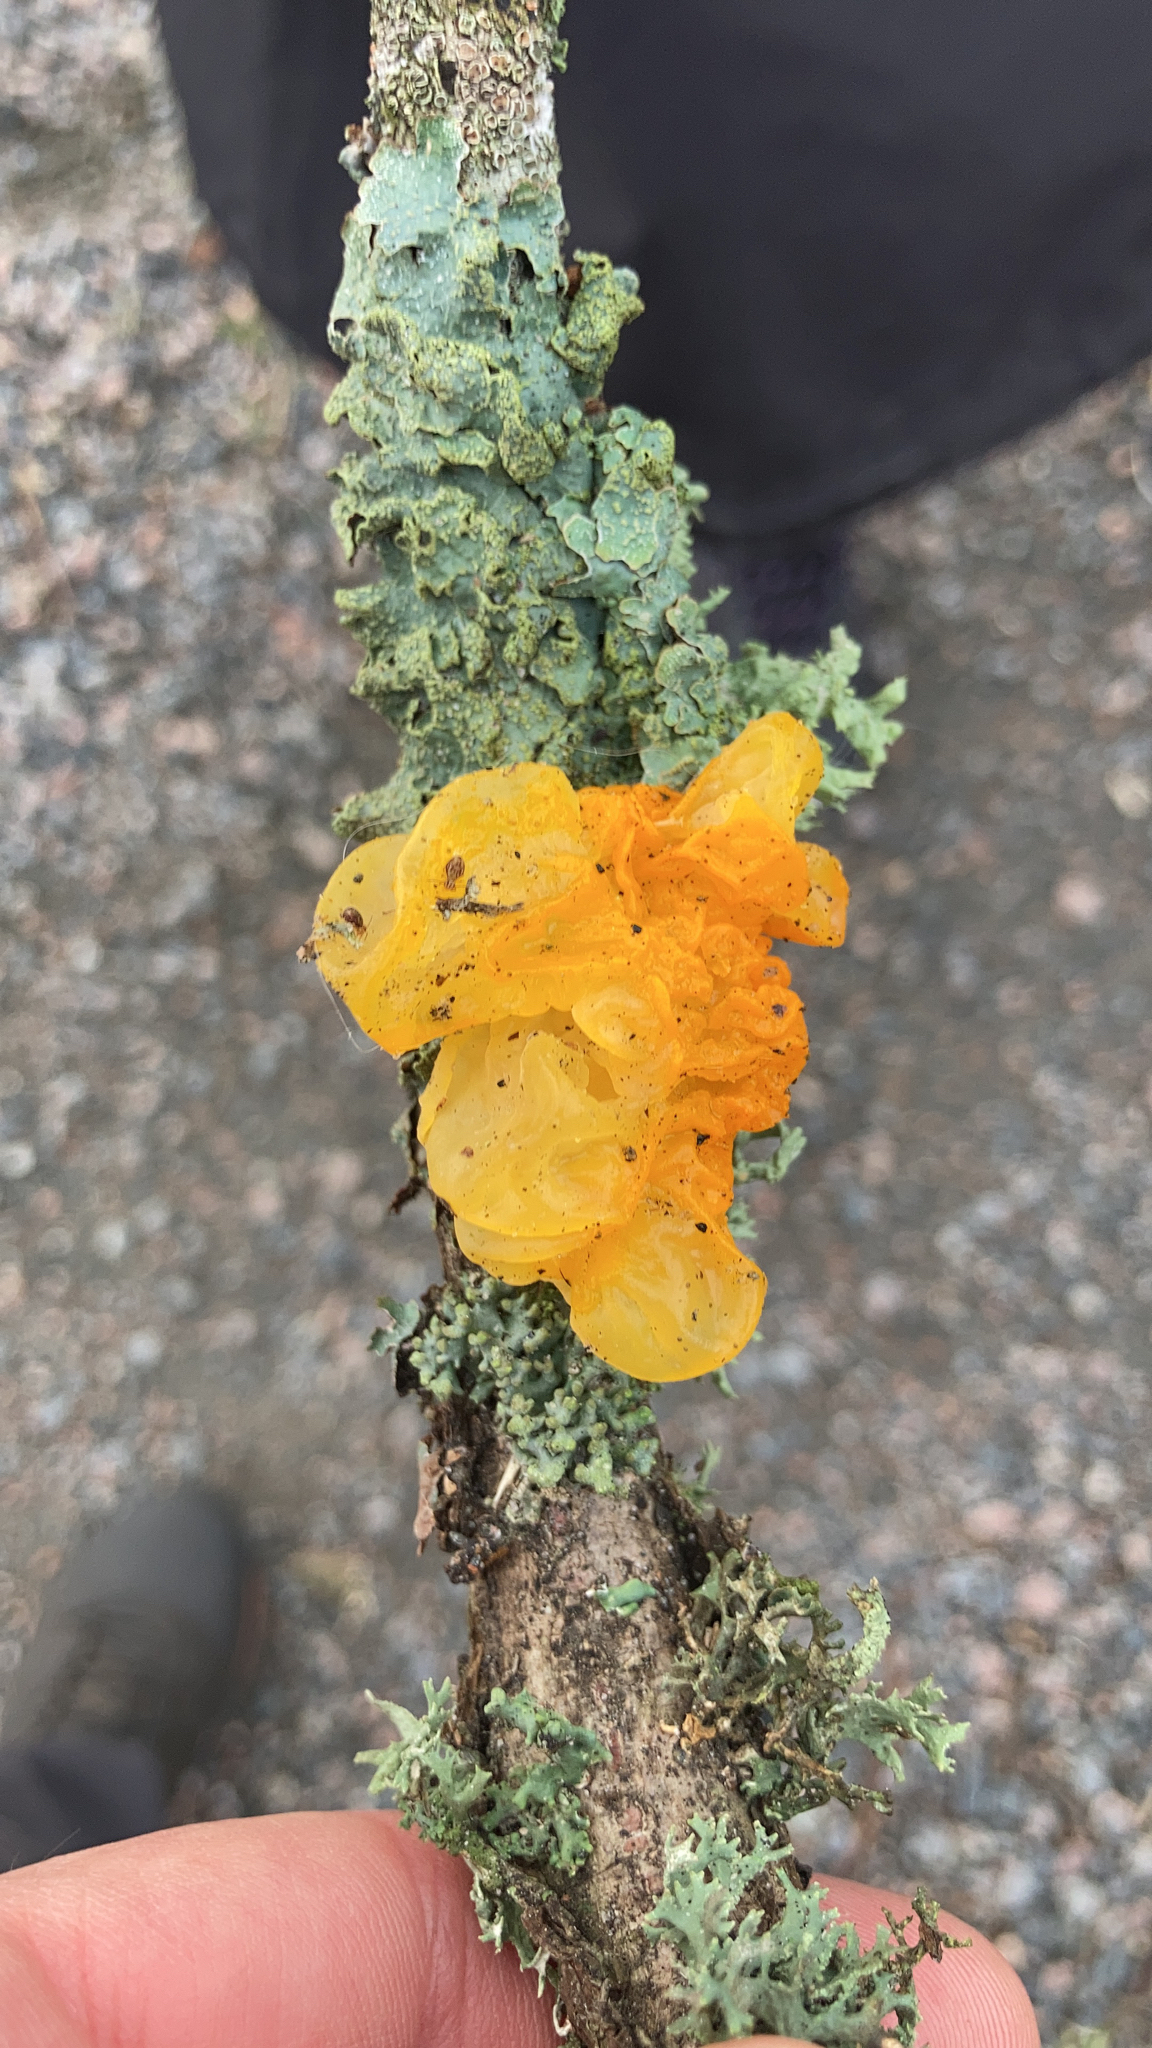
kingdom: Fungi
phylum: Basidiomycota
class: Tremellomycetes
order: Tremellales
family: Tremellaceae
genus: Tremella
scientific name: Tremella mesenterica
